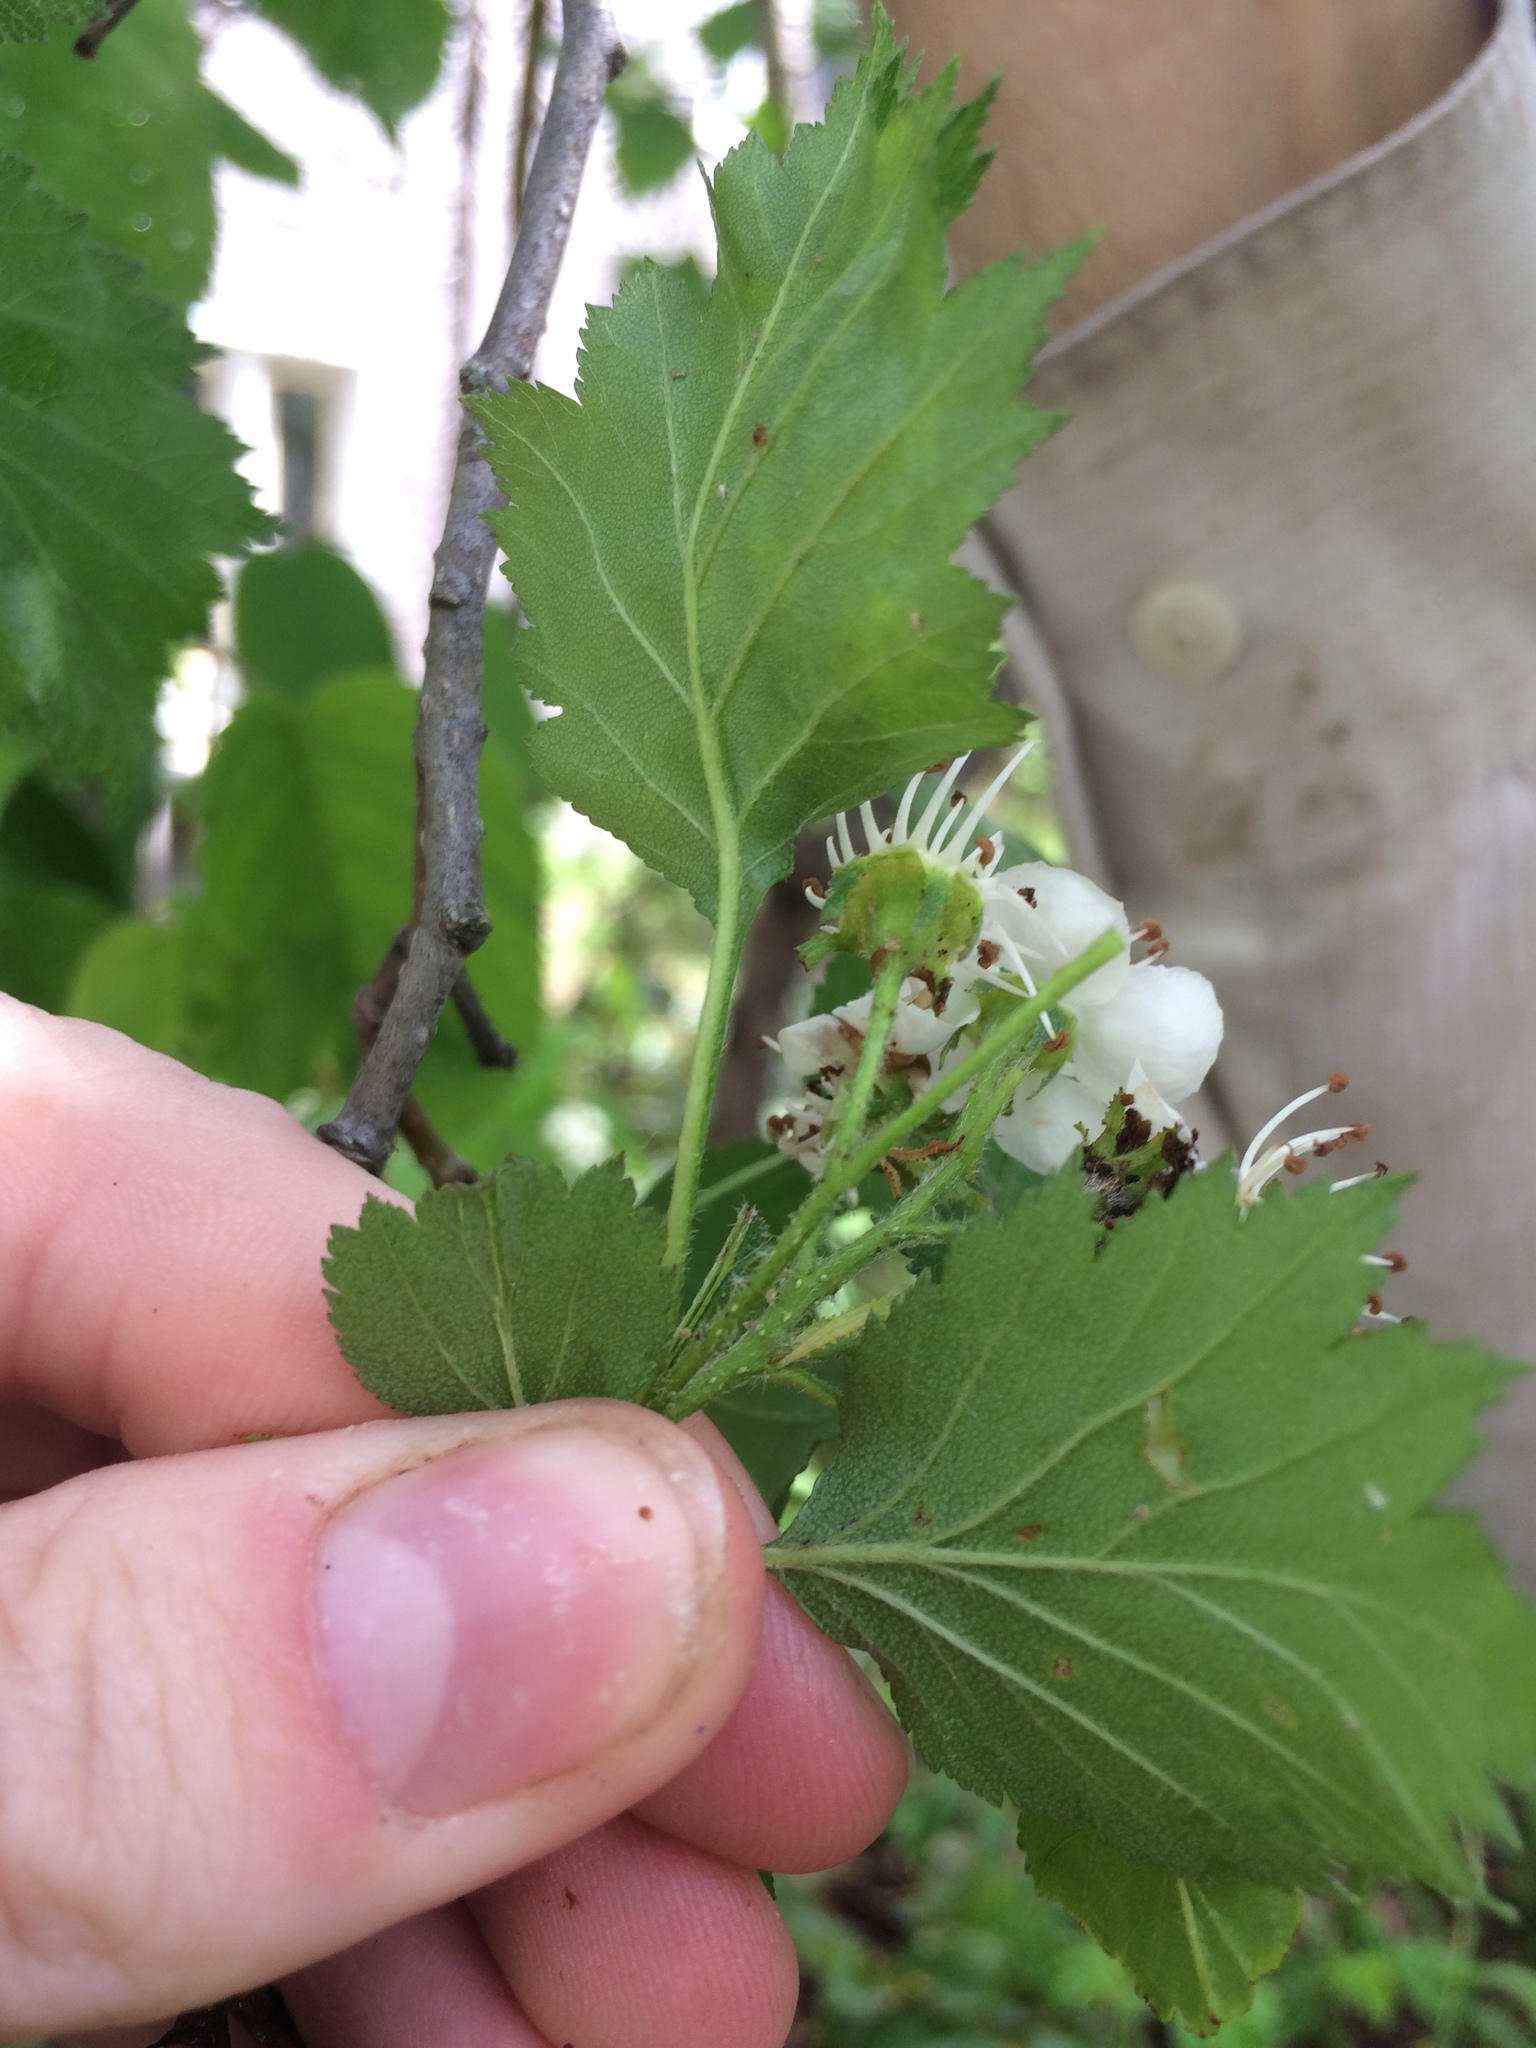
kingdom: Plantae
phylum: Tracheophyta
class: Magnoliopsida
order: Rosales
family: Rosaceae
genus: Crataegus
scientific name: Crataegus irrasa
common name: Unshorn hawthorn
